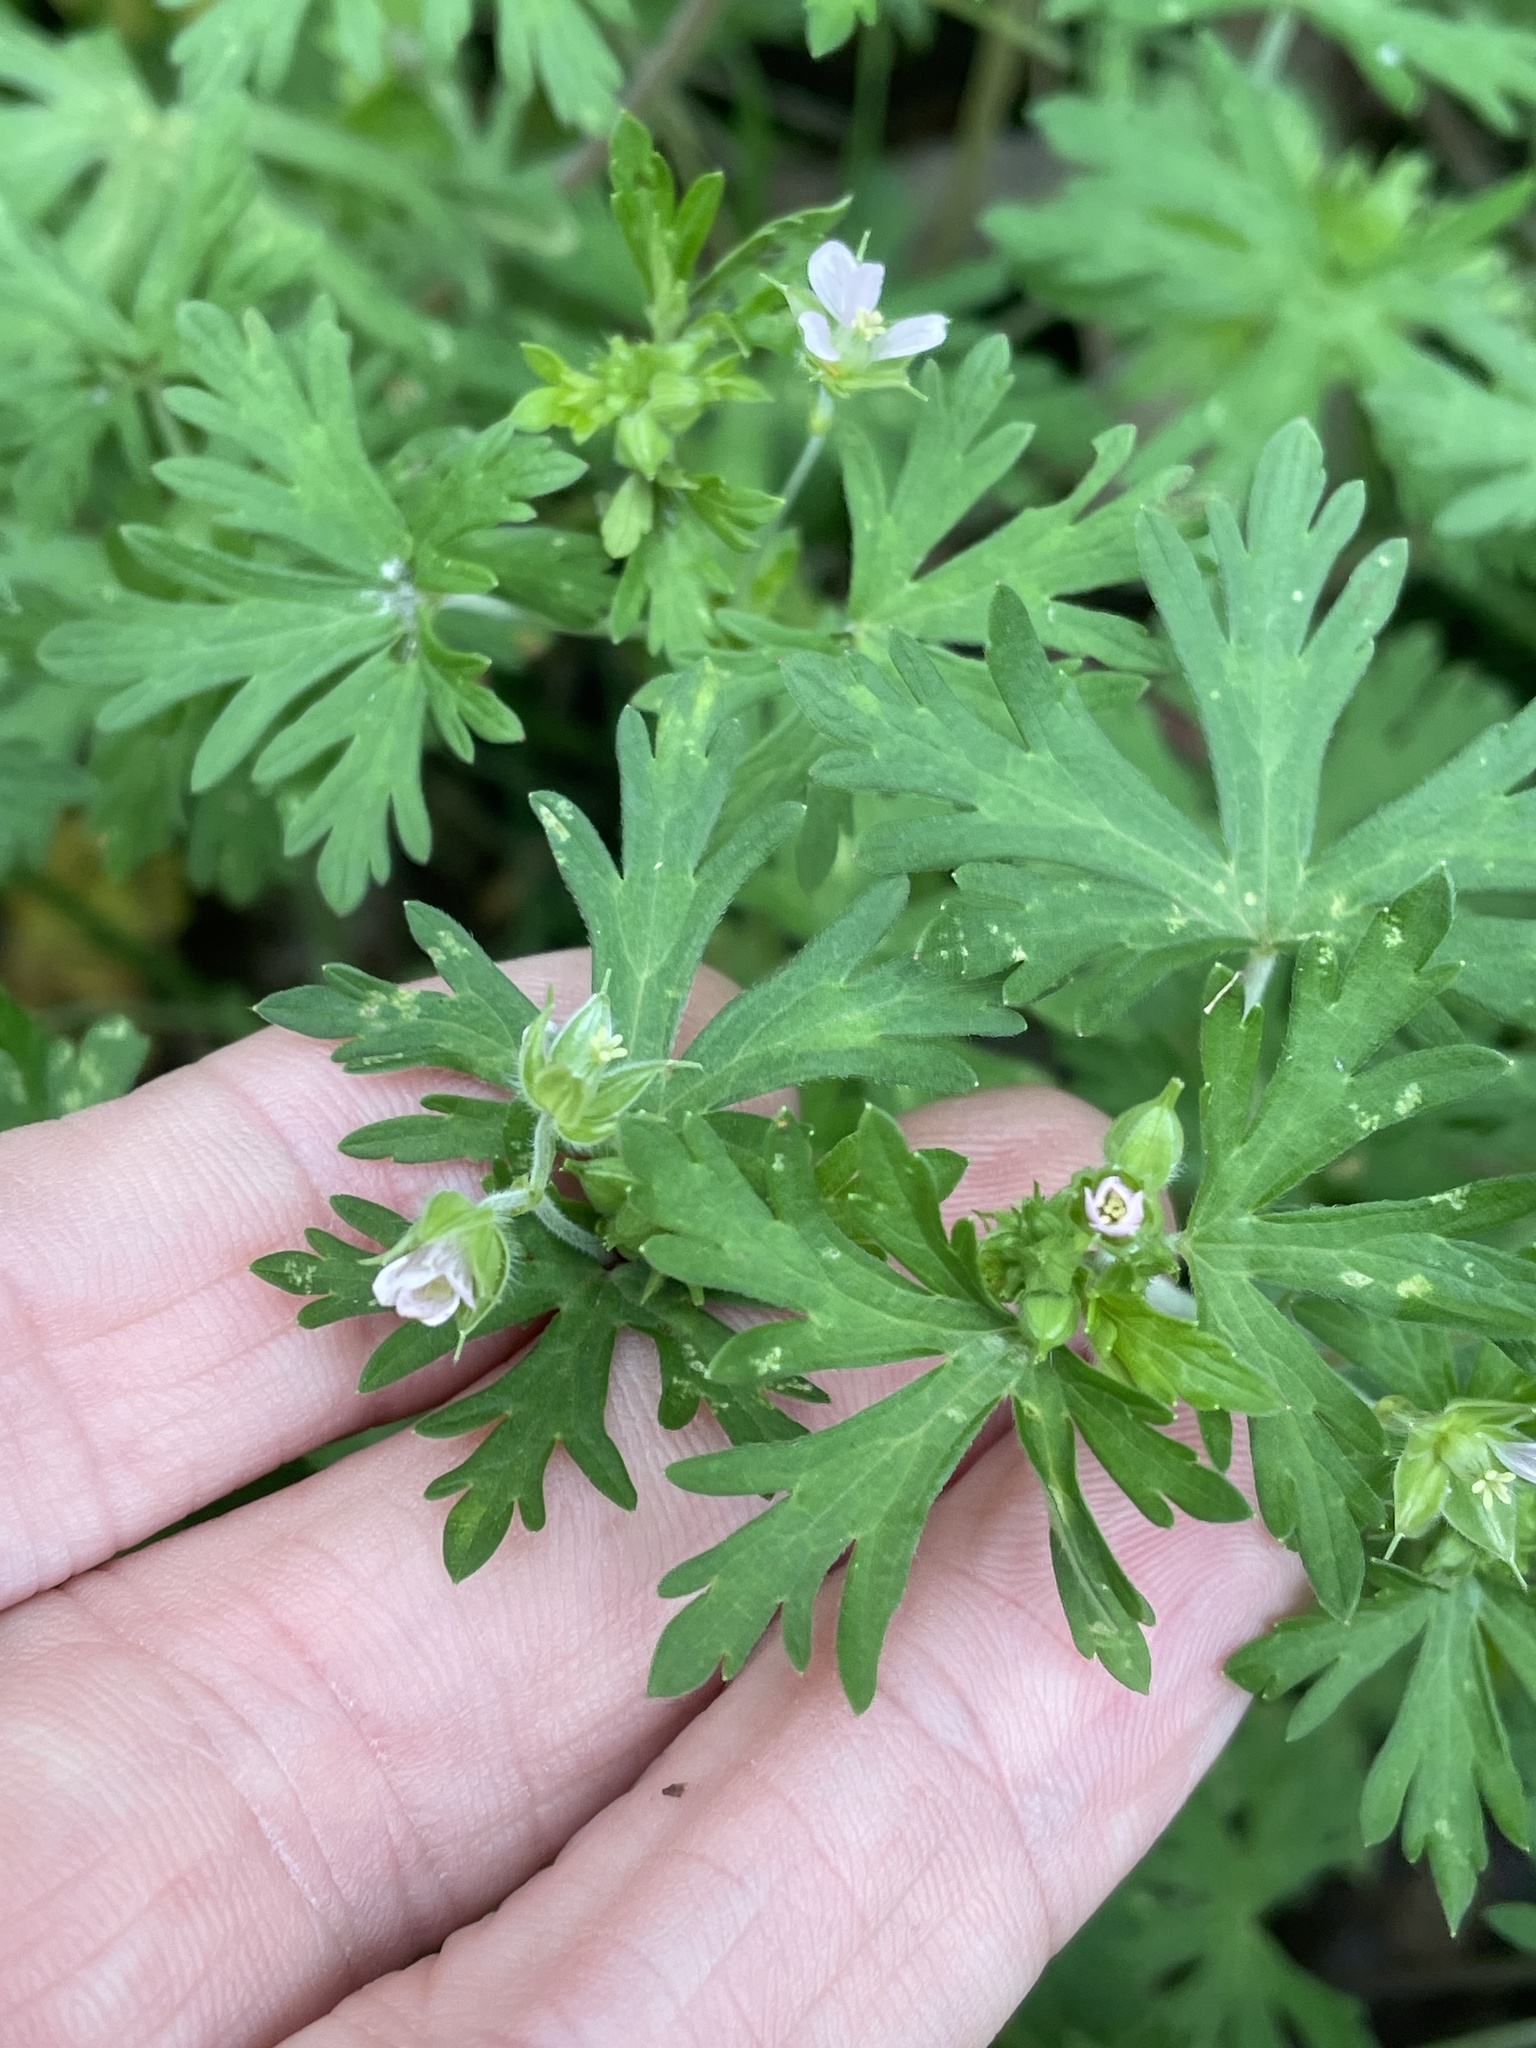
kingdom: Plantae
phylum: Tracheophyta
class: Magnoliopsida
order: Geraniales
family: Geraniaceae
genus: Geranium
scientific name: Geranium carolinianum
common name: Carolina crane's-bill
